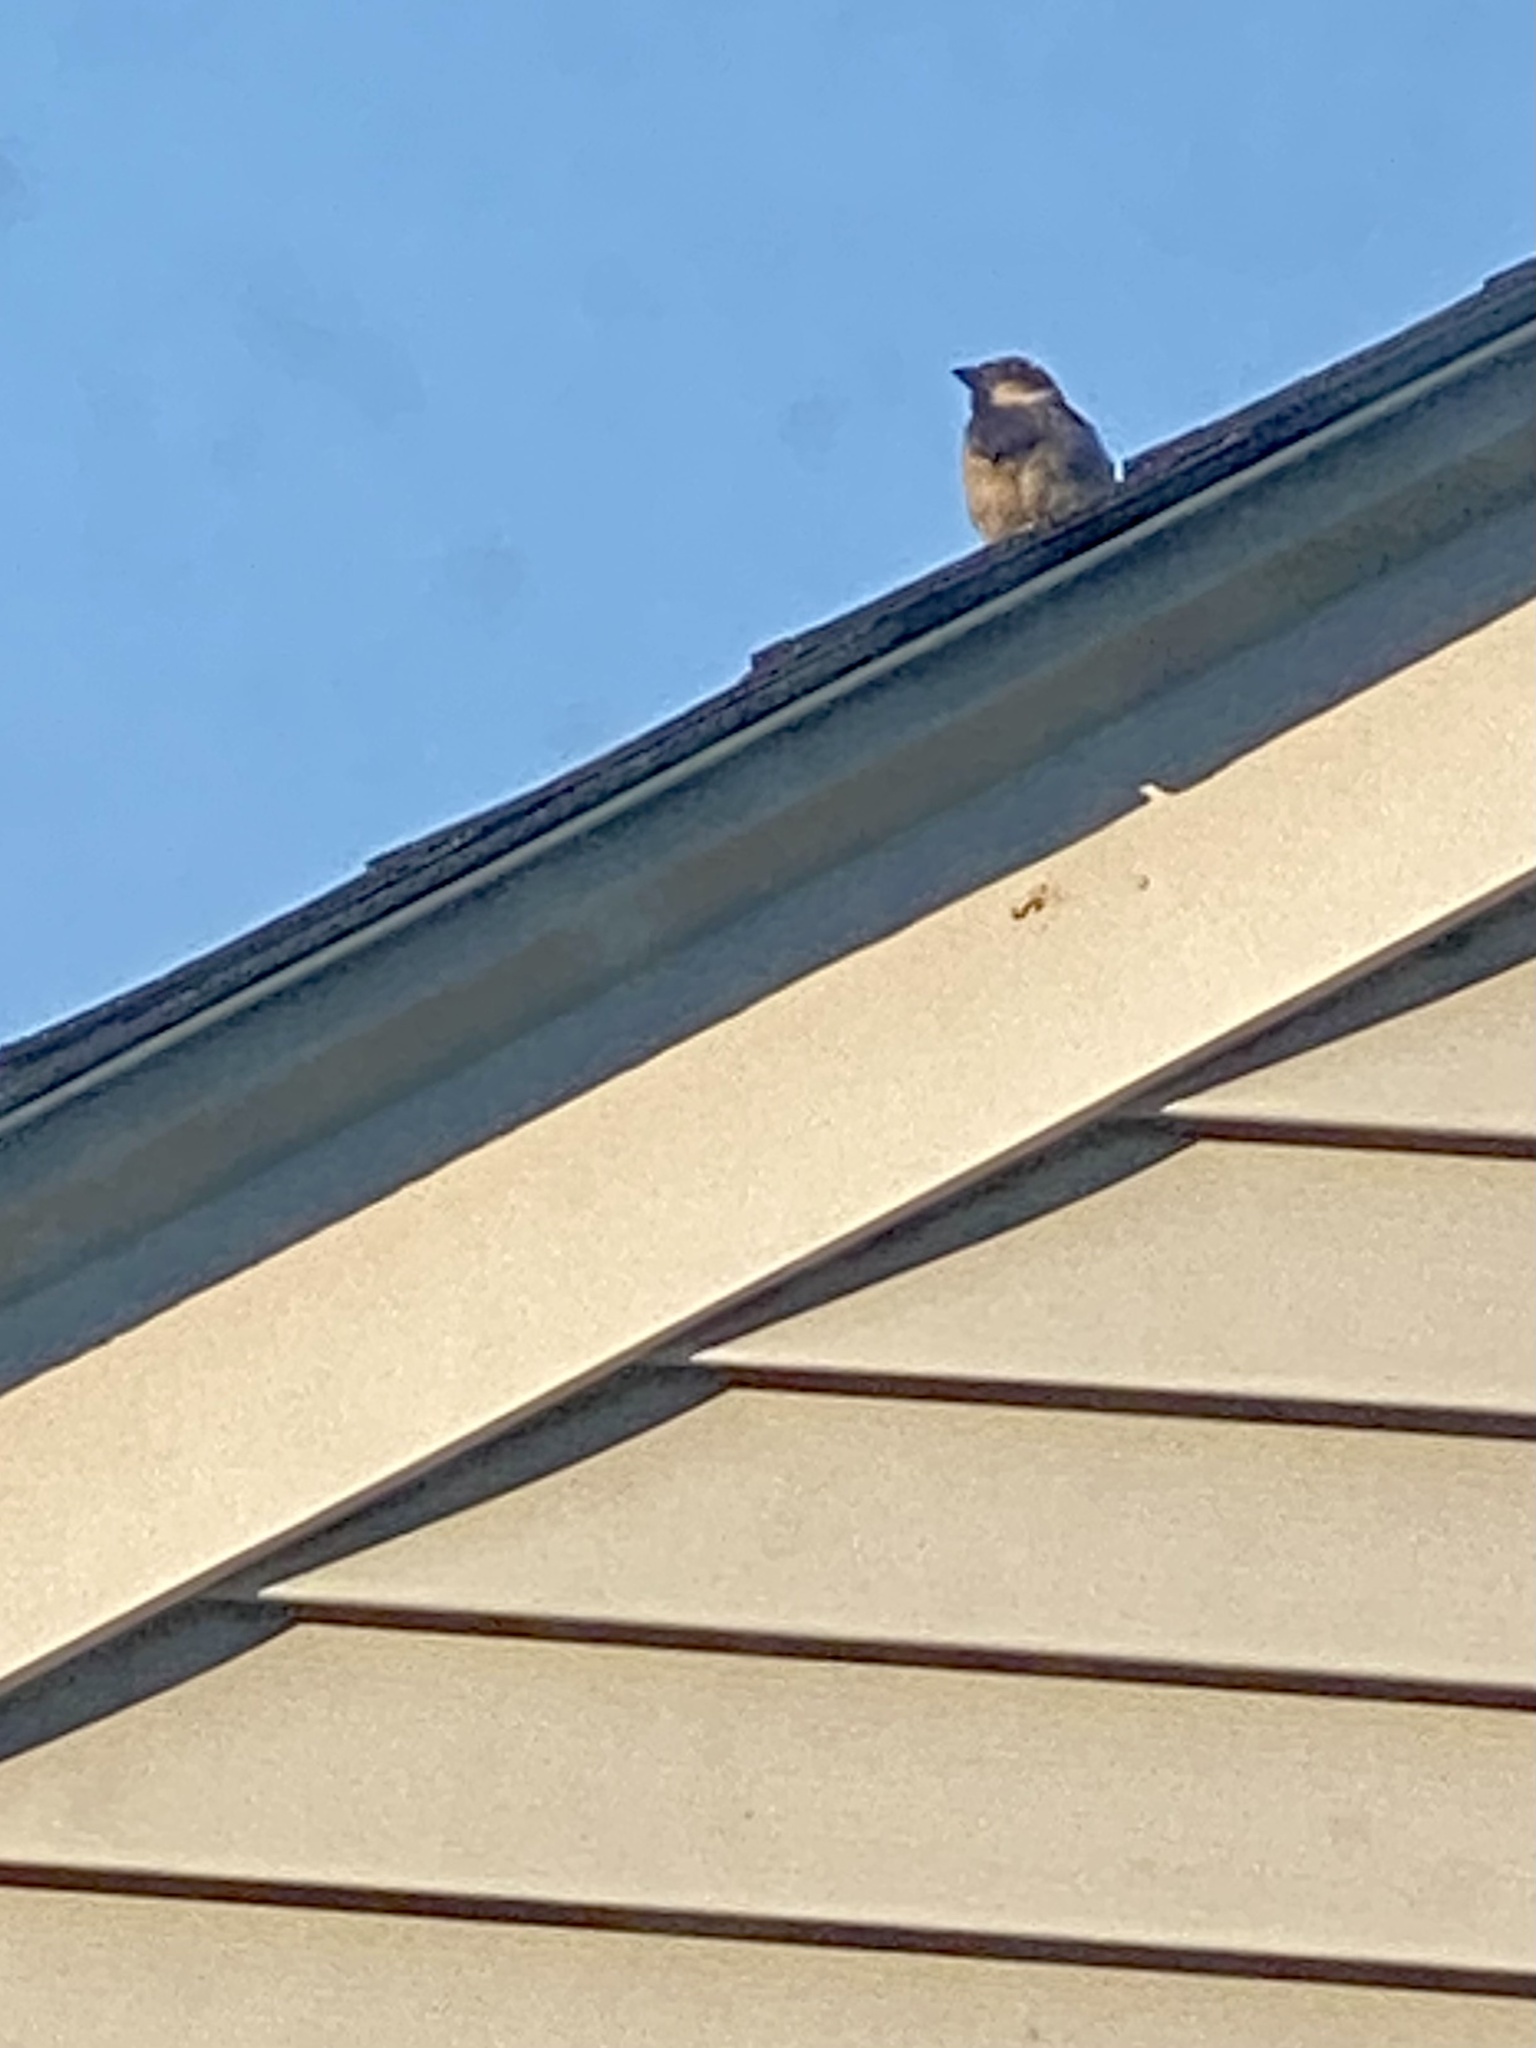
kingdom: Animalia
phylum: Chordata
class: Aves
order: Passeriformes
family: Passeridae
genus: Passer
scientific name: Passer domesticus
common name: House sparrow
